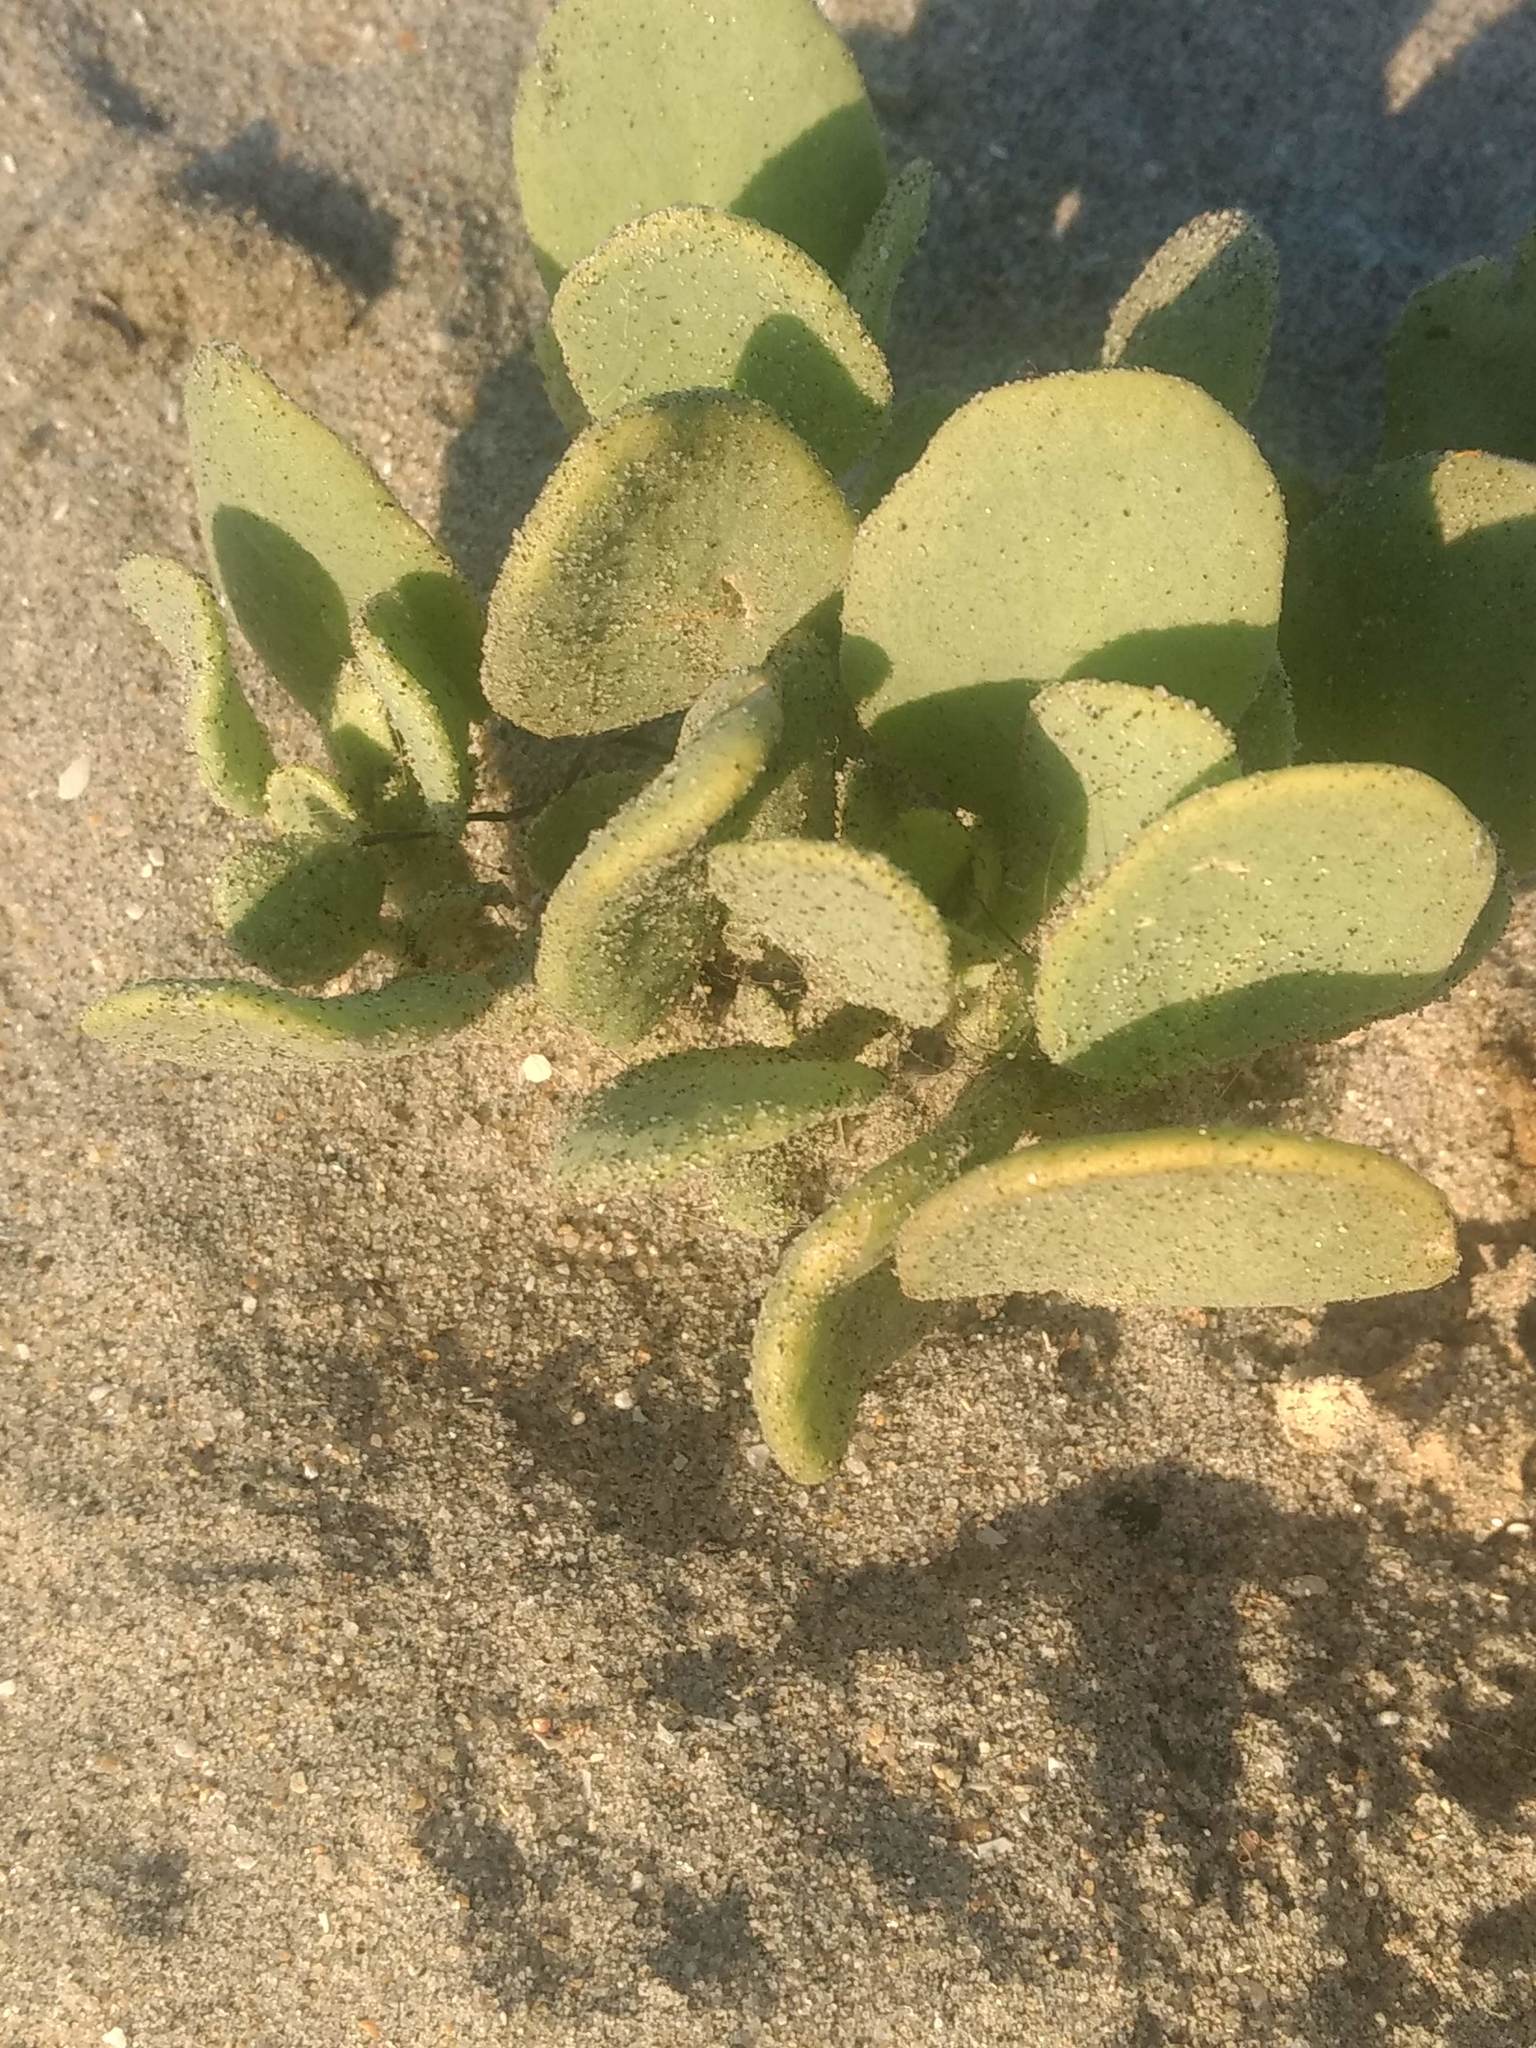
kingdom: Plantae
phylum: Tracheophyta
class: Magnoliopsida
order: Caryophyllales
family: Nyctaginaceae
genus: Abronia
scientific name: Abronia maritima
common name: Red sand-verbena
